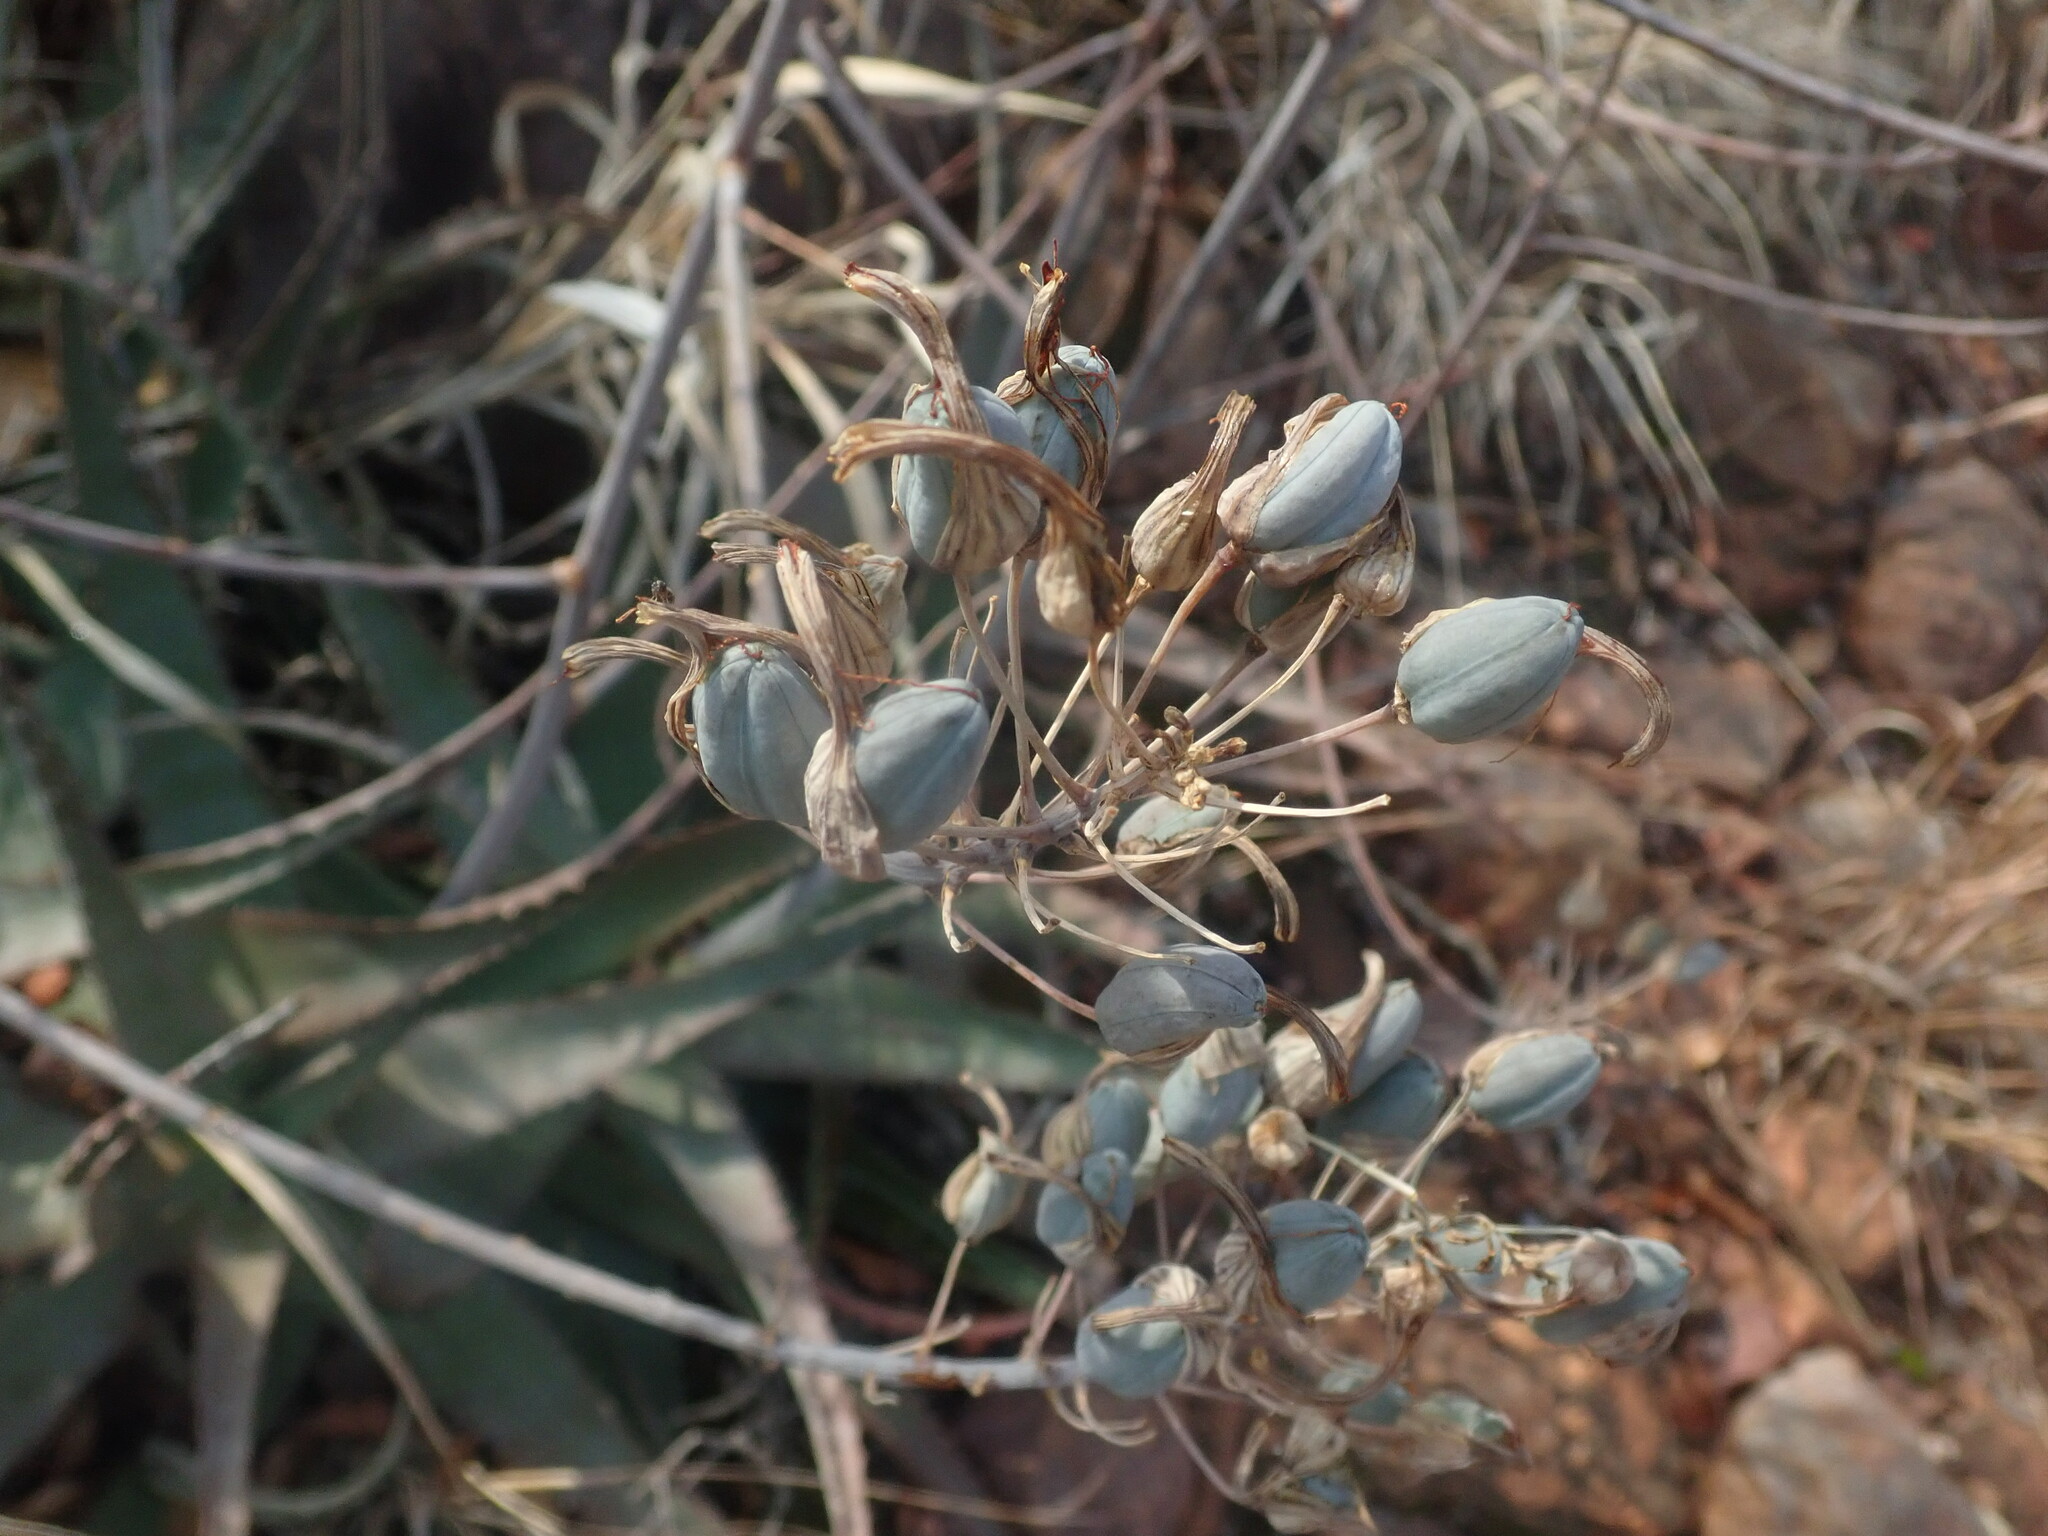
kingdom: Plantae
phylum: Tracheophyta
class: Liliopsida
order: Asparagales
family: Asphodelaceae
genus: Aloe
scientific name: Aloe chabaudii
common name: Chabaud's aloe
